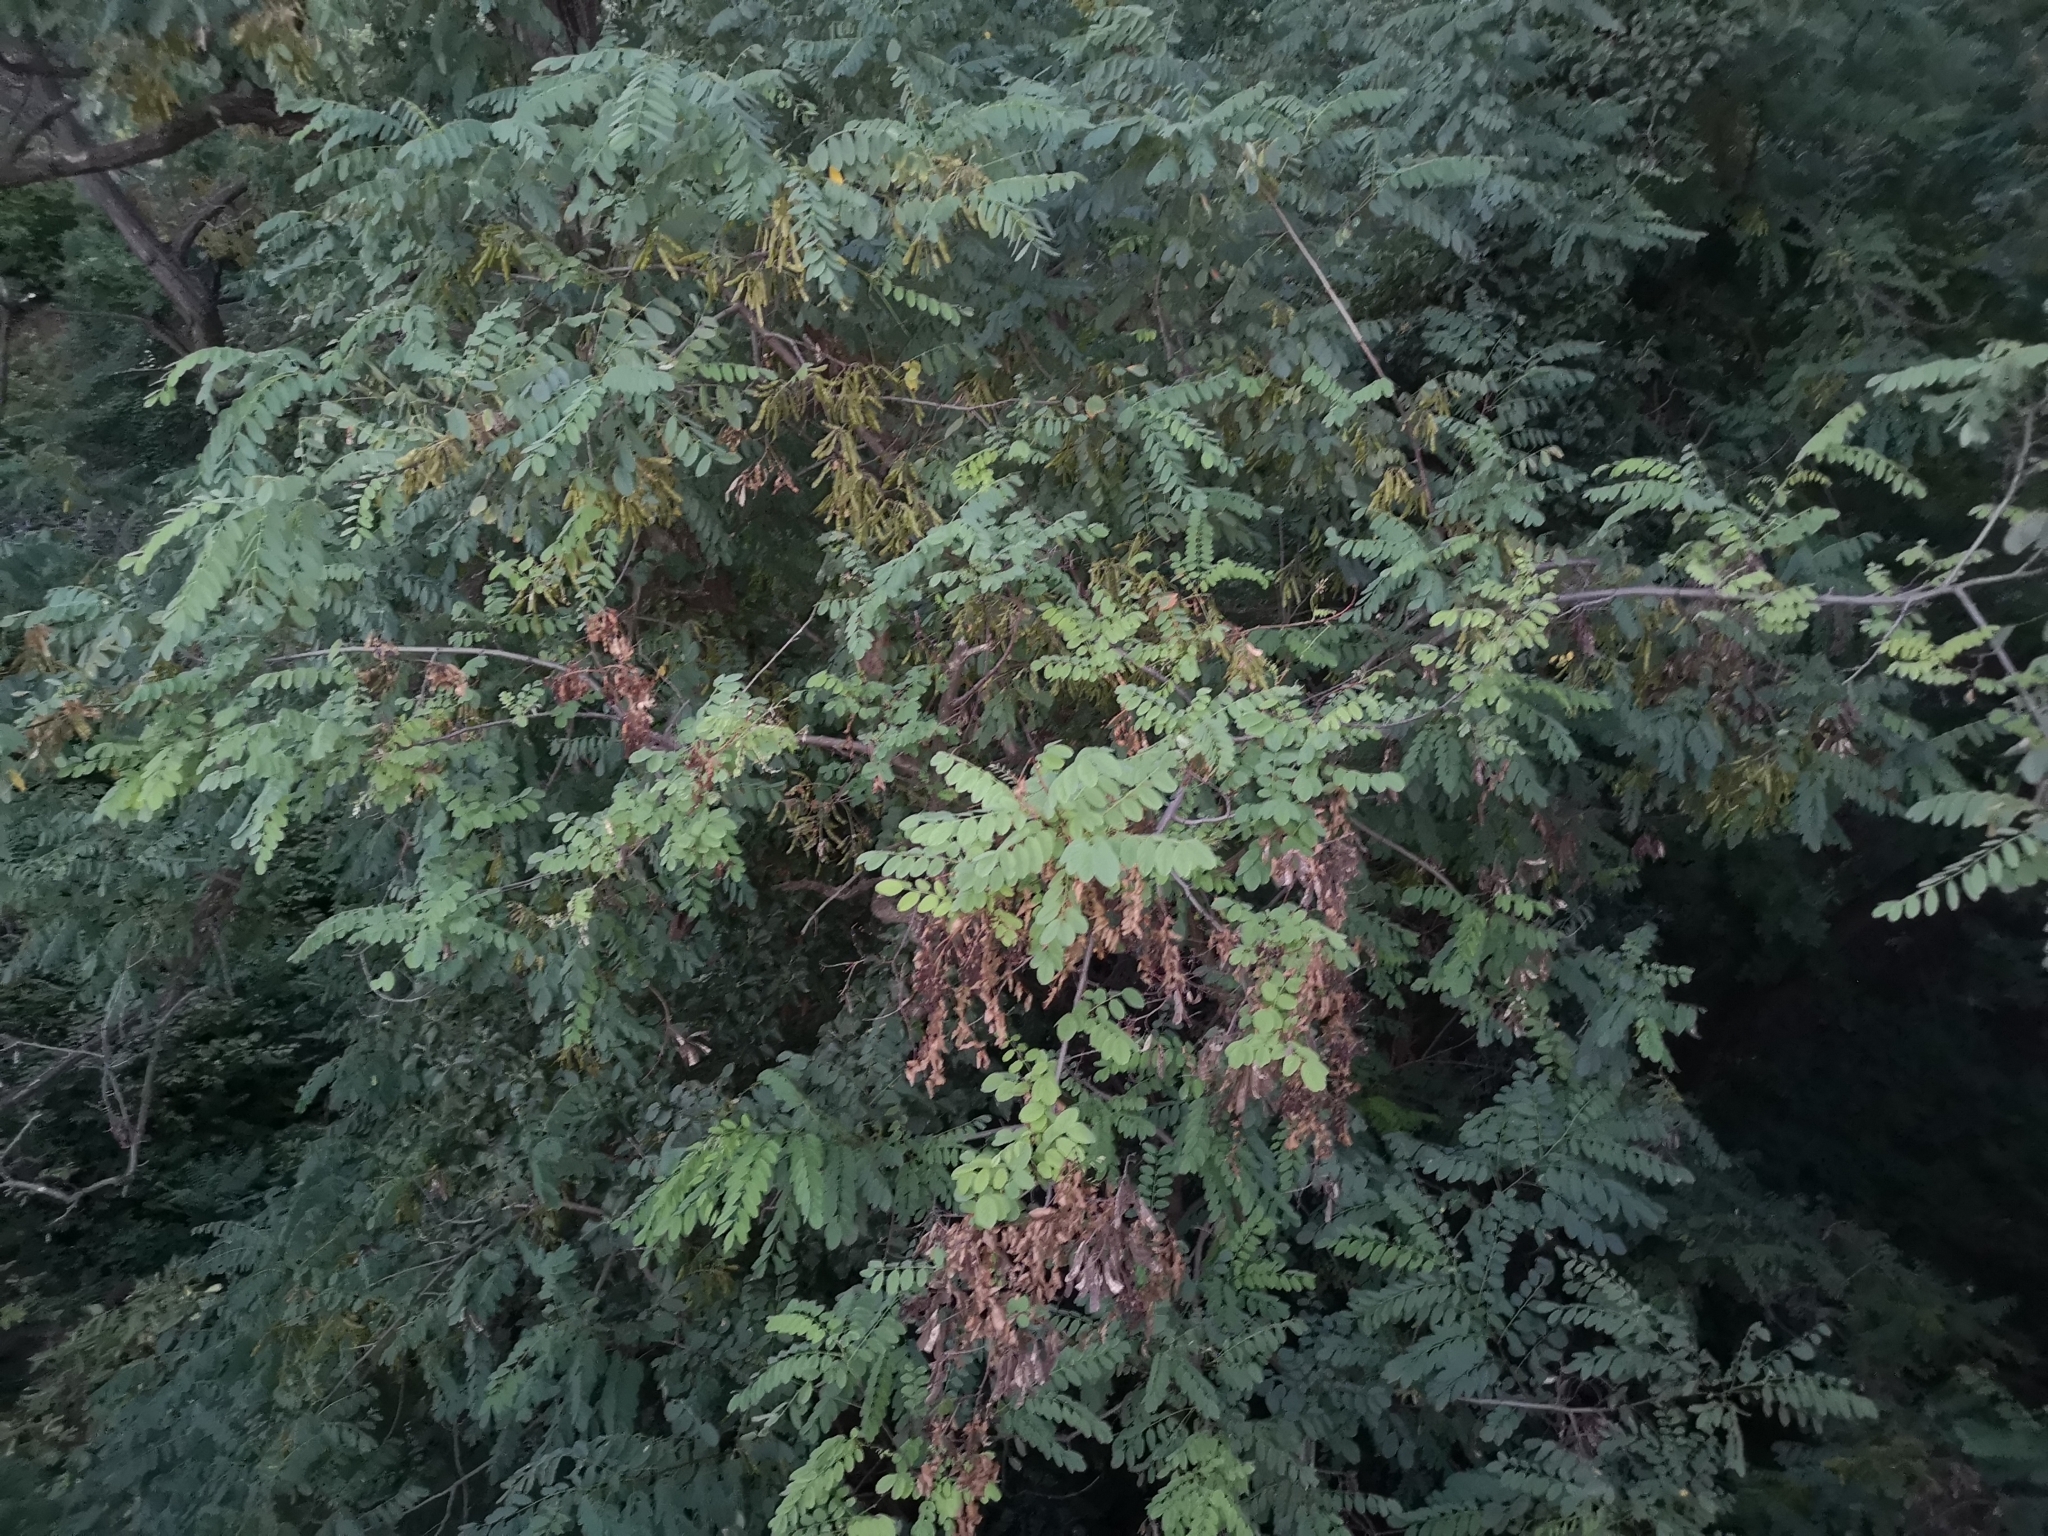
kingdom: Plantae
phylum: Tracheophyta
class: Magnoliopsida
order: Fabales
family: Fabaceae
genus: Robinia
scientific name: Robinia pseudoacacia
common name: Black locust
